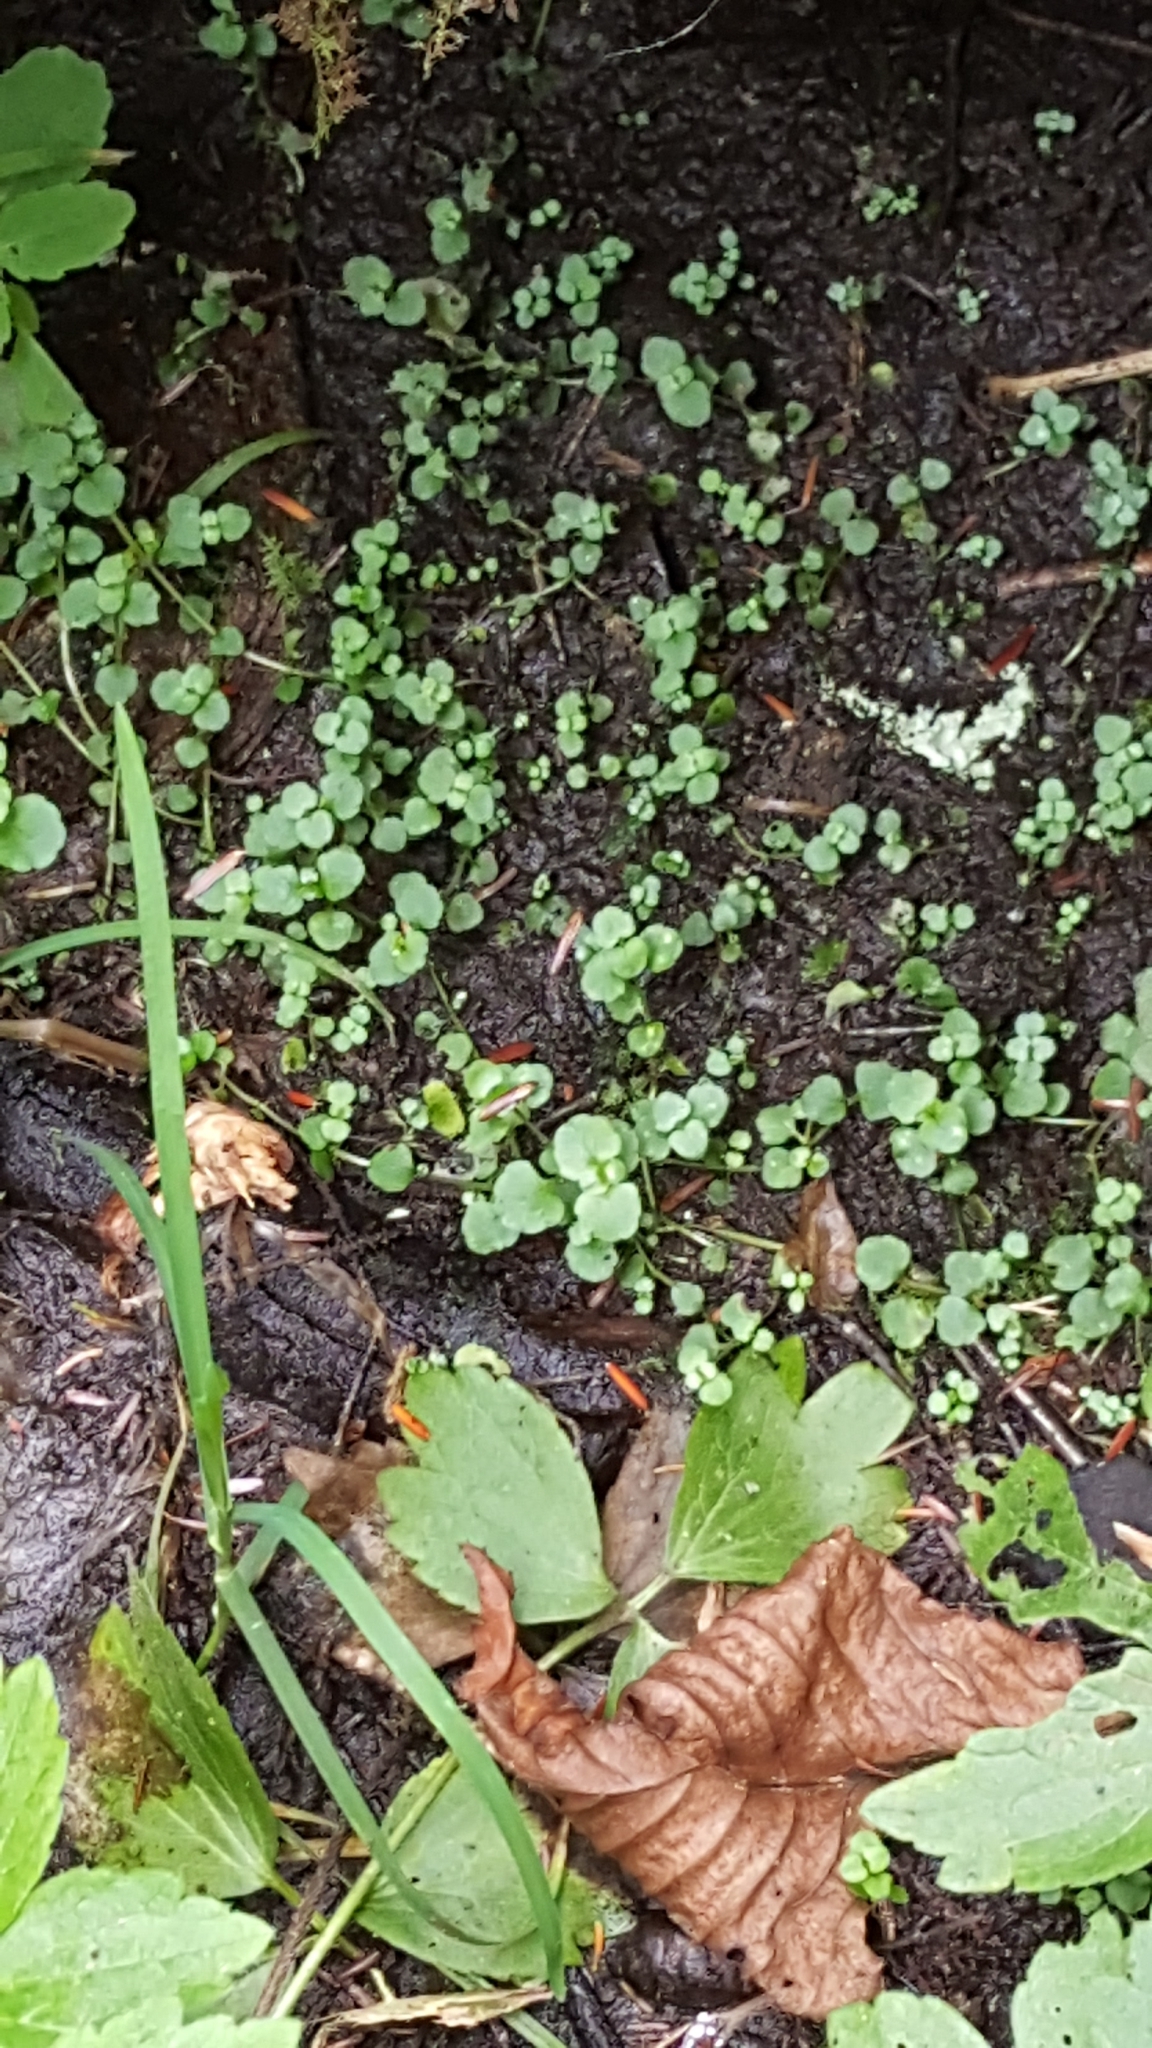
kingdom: Plantae
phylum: Tracheophyta
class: Magnoliopsida
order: Saxifragales
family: Saxifragaceae
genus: Chrysosplenium
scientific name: Chrysosplenium americanum
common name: American golden-saxifrage
